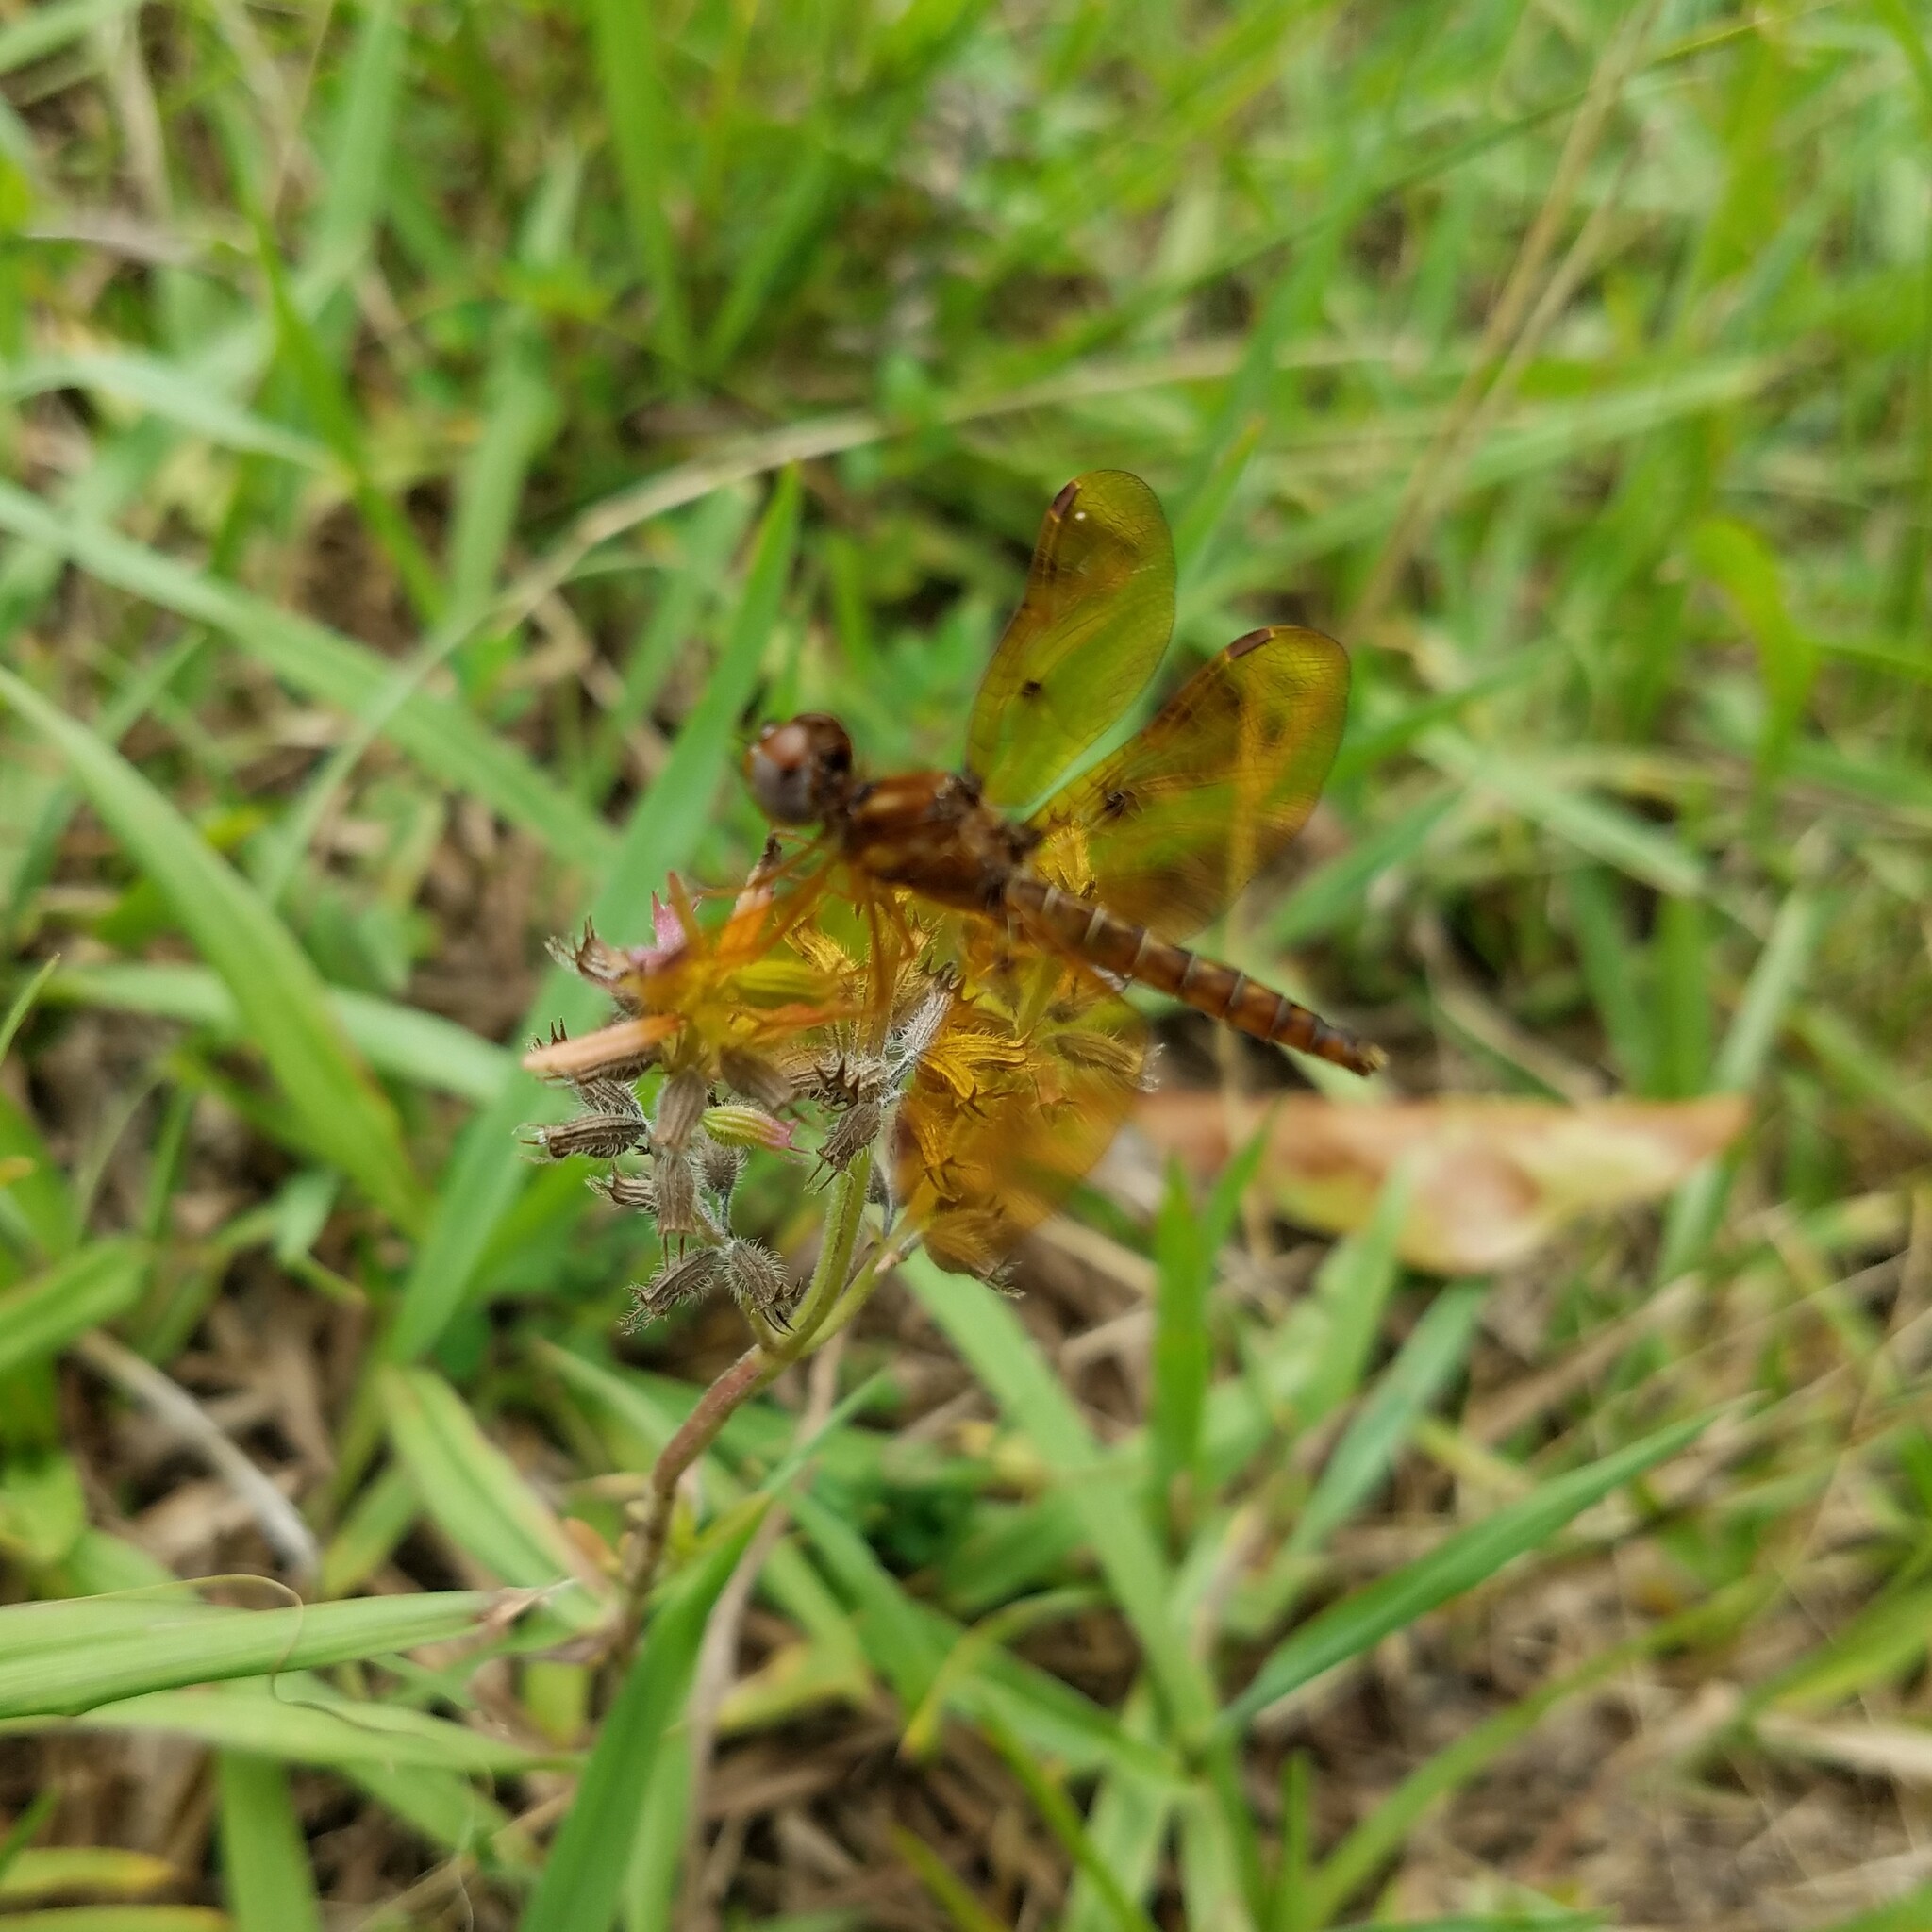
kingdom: Animalia
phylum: Arthropoda
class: Insecta
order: Odonata
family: Libellulidae
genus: Perithemis
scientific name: Perithemis tenera
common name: Eastern amberwing
